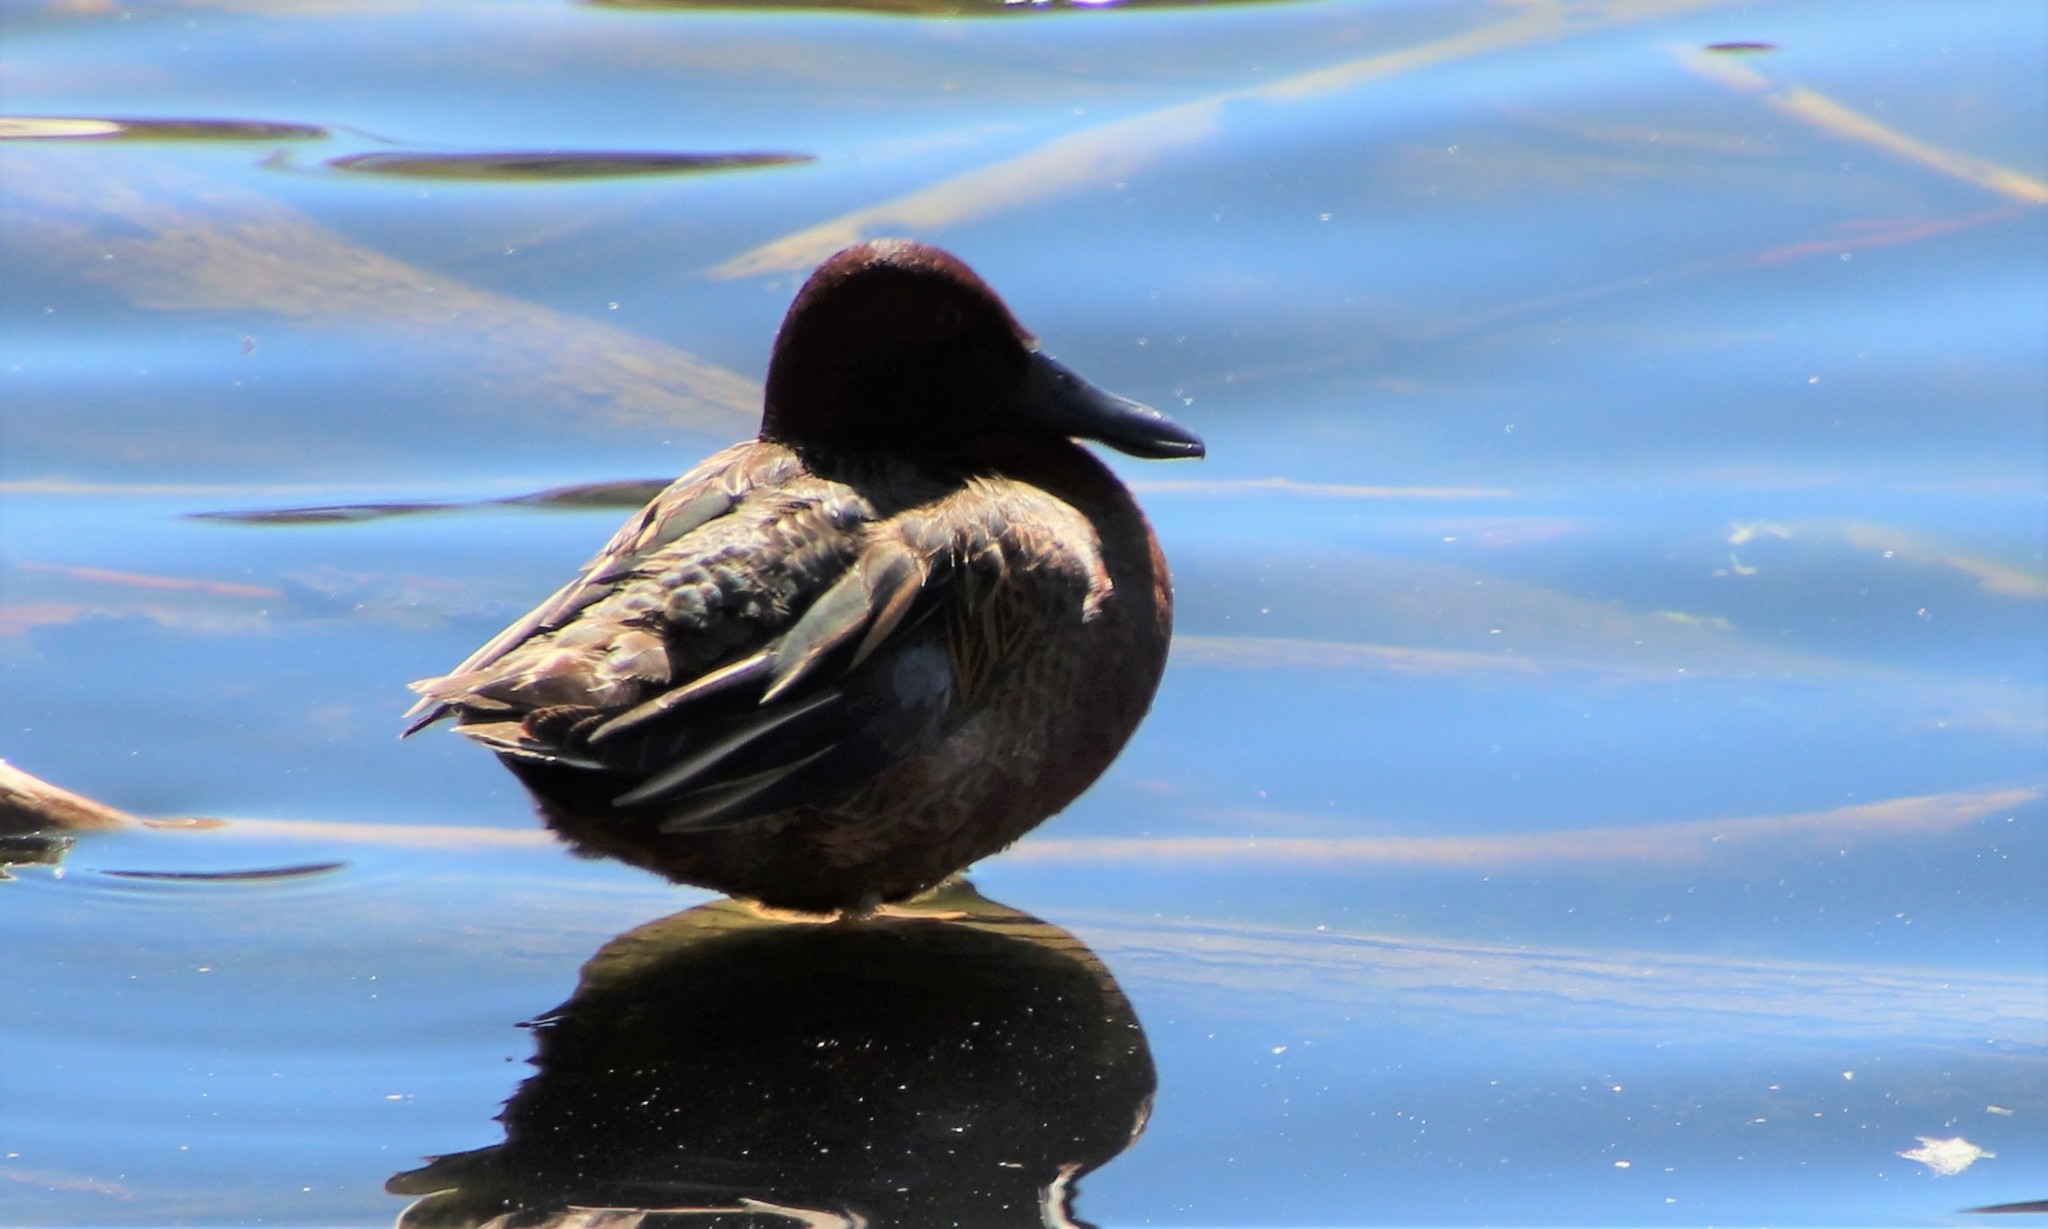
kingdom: Animalia
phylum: Chordata
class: Aves
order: Anseriformes
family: Anatidae
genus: Spatula
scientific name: Spatula cyanoptera
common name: Cinnamon teal
